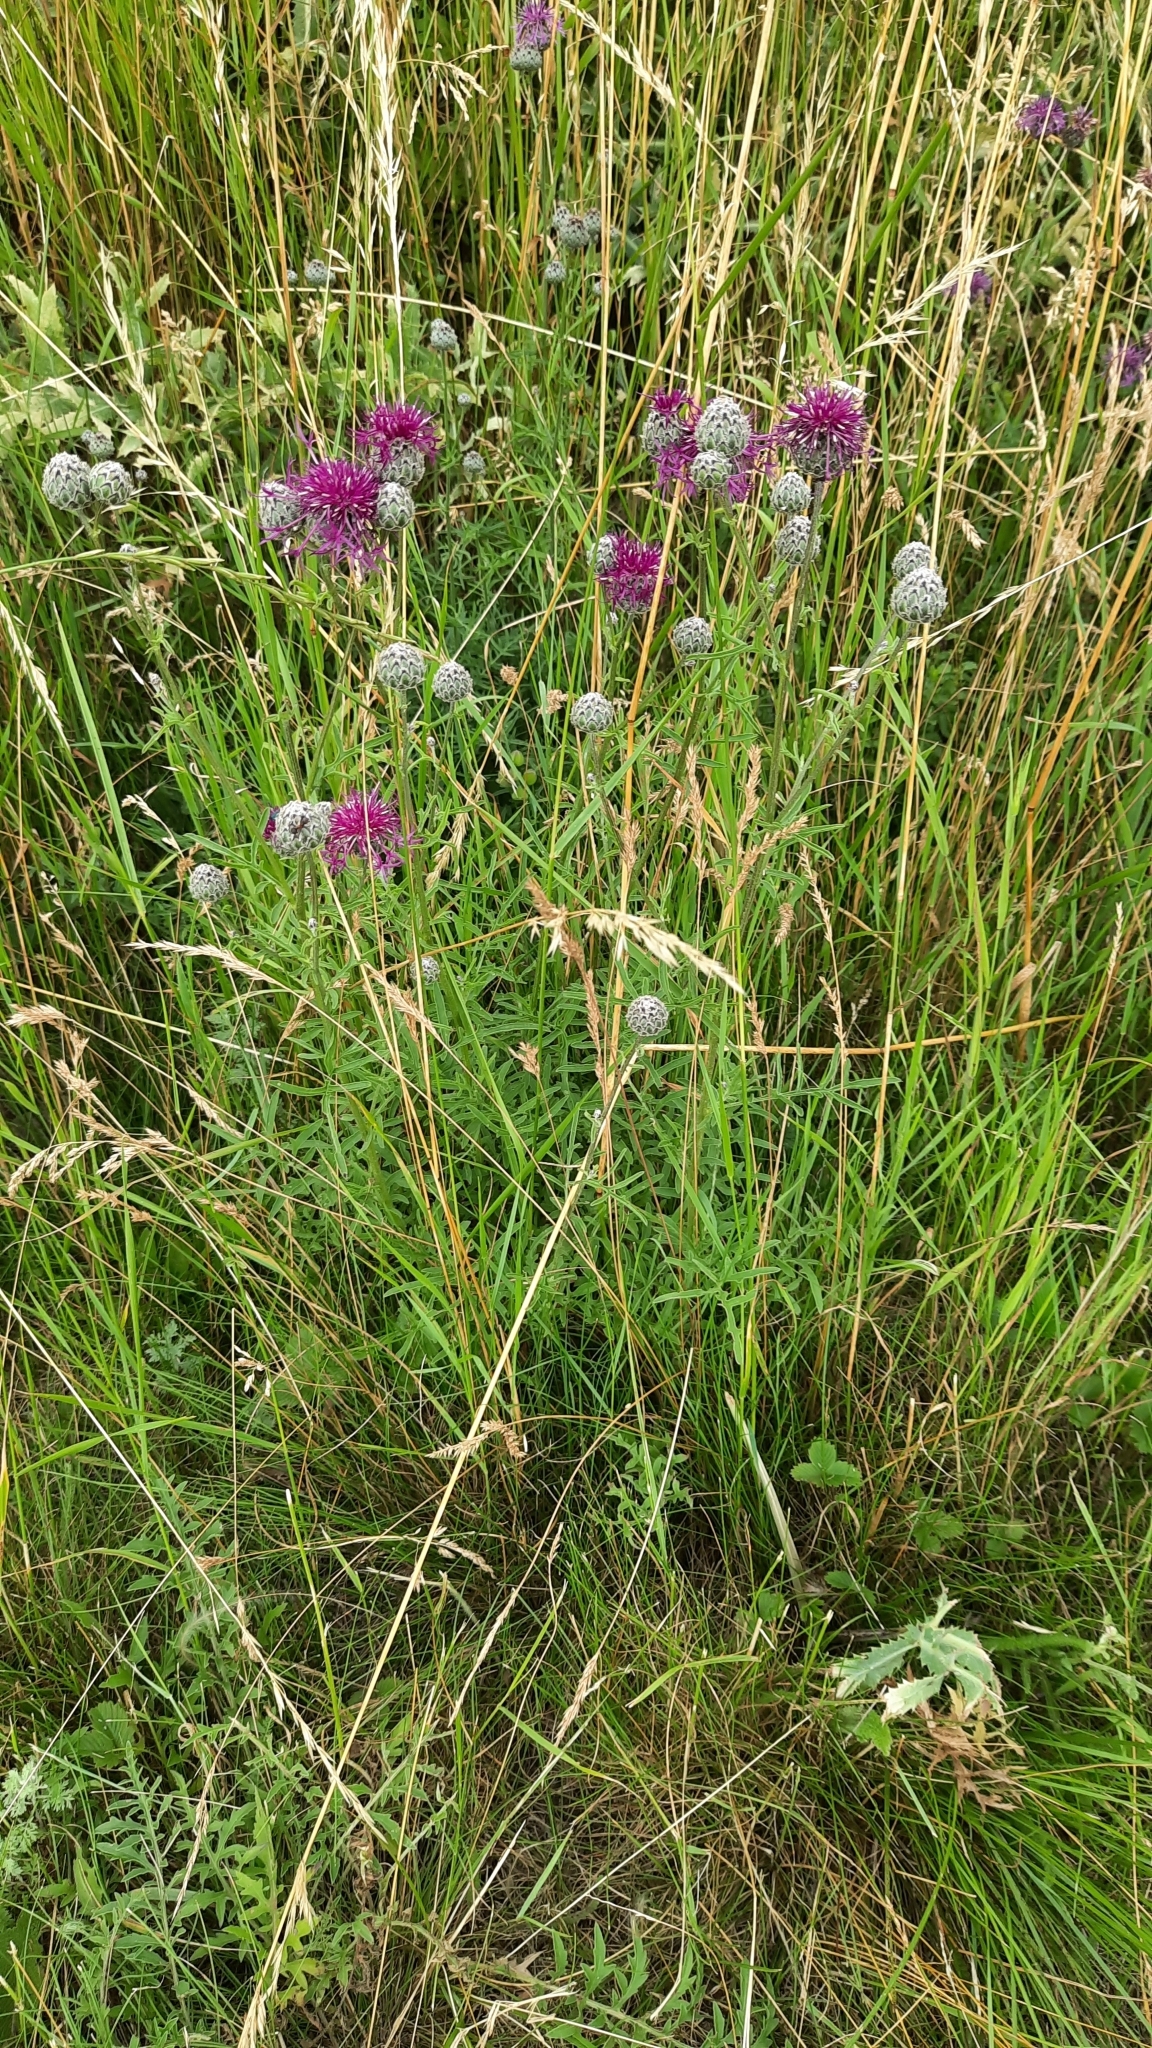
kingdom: Plantae
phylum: Tracheophyta
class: Magnoliopsida
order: Asterales
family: Asteraceae
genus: Centaurea
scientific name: Centaurea scabiosa
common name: Greater knapweed
